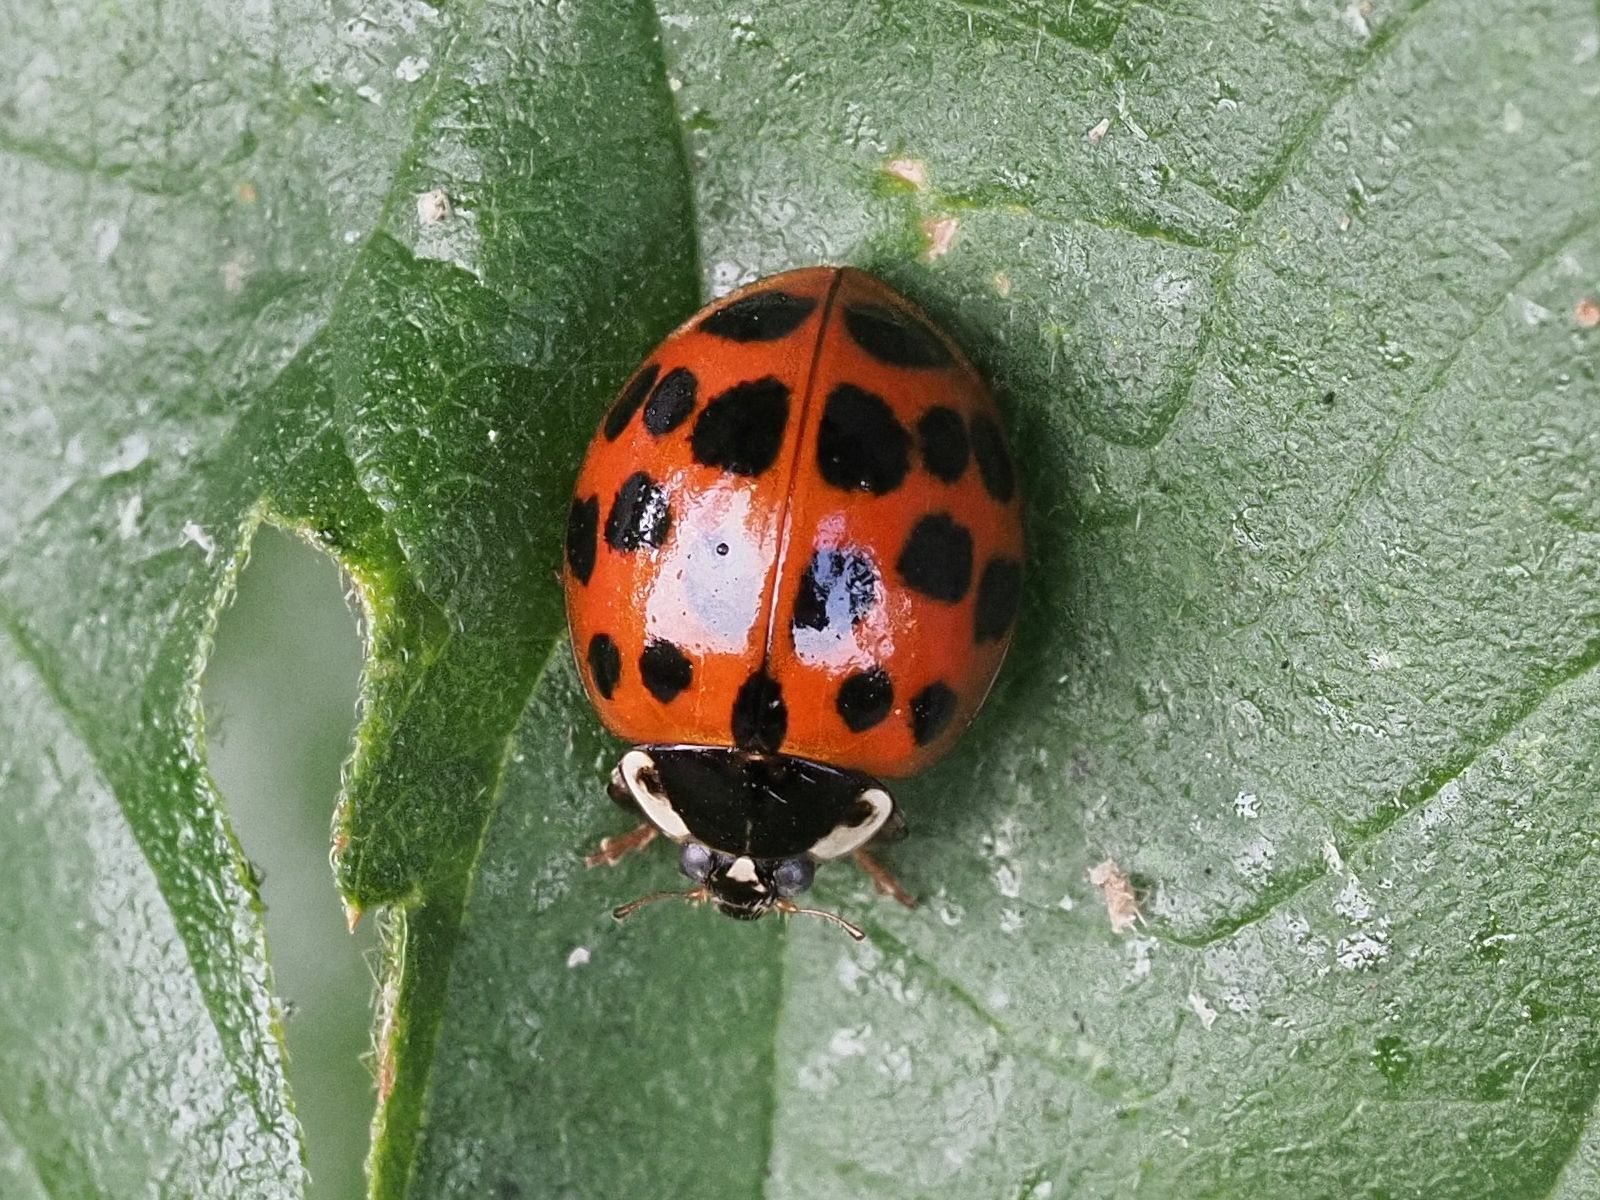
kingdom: Animalia
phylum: Arthropoda
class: Insecta
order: Coleoptera
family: Coccinellidae
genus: Harmonia
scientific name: Harmonia axyridis
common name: Harlequin ladybird
